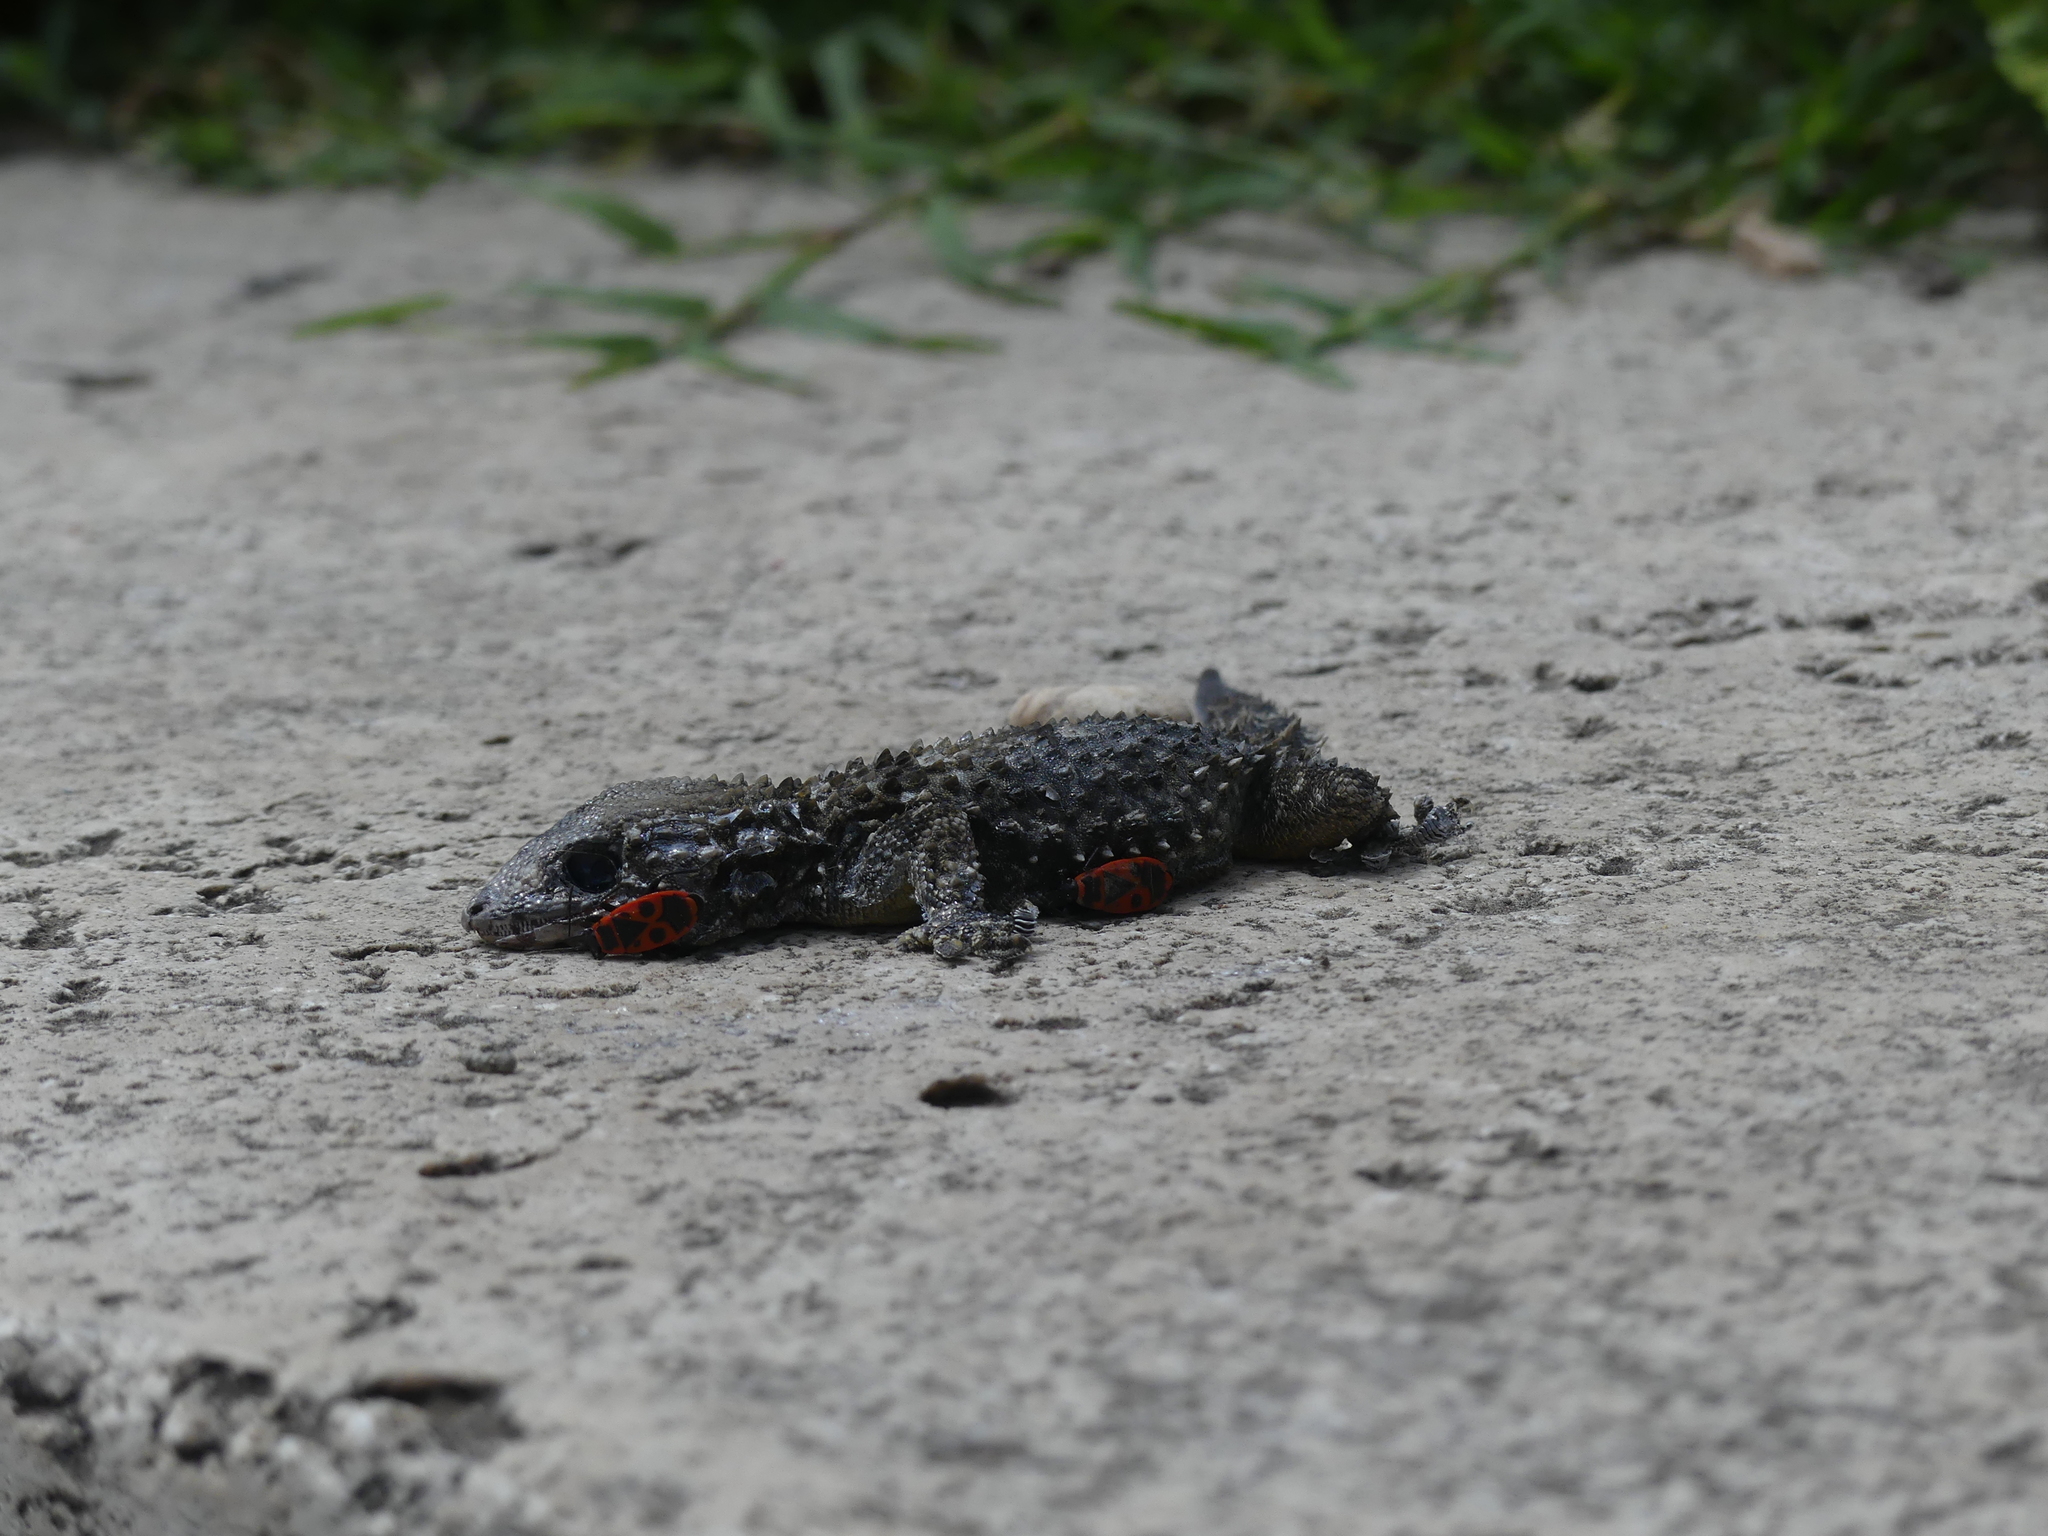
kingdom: Animalia
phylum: Chordata
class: Squamata
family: Phyllodactylidae
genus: Tarentola
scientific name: Tarentola mauritanica
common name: Moorish gecko
